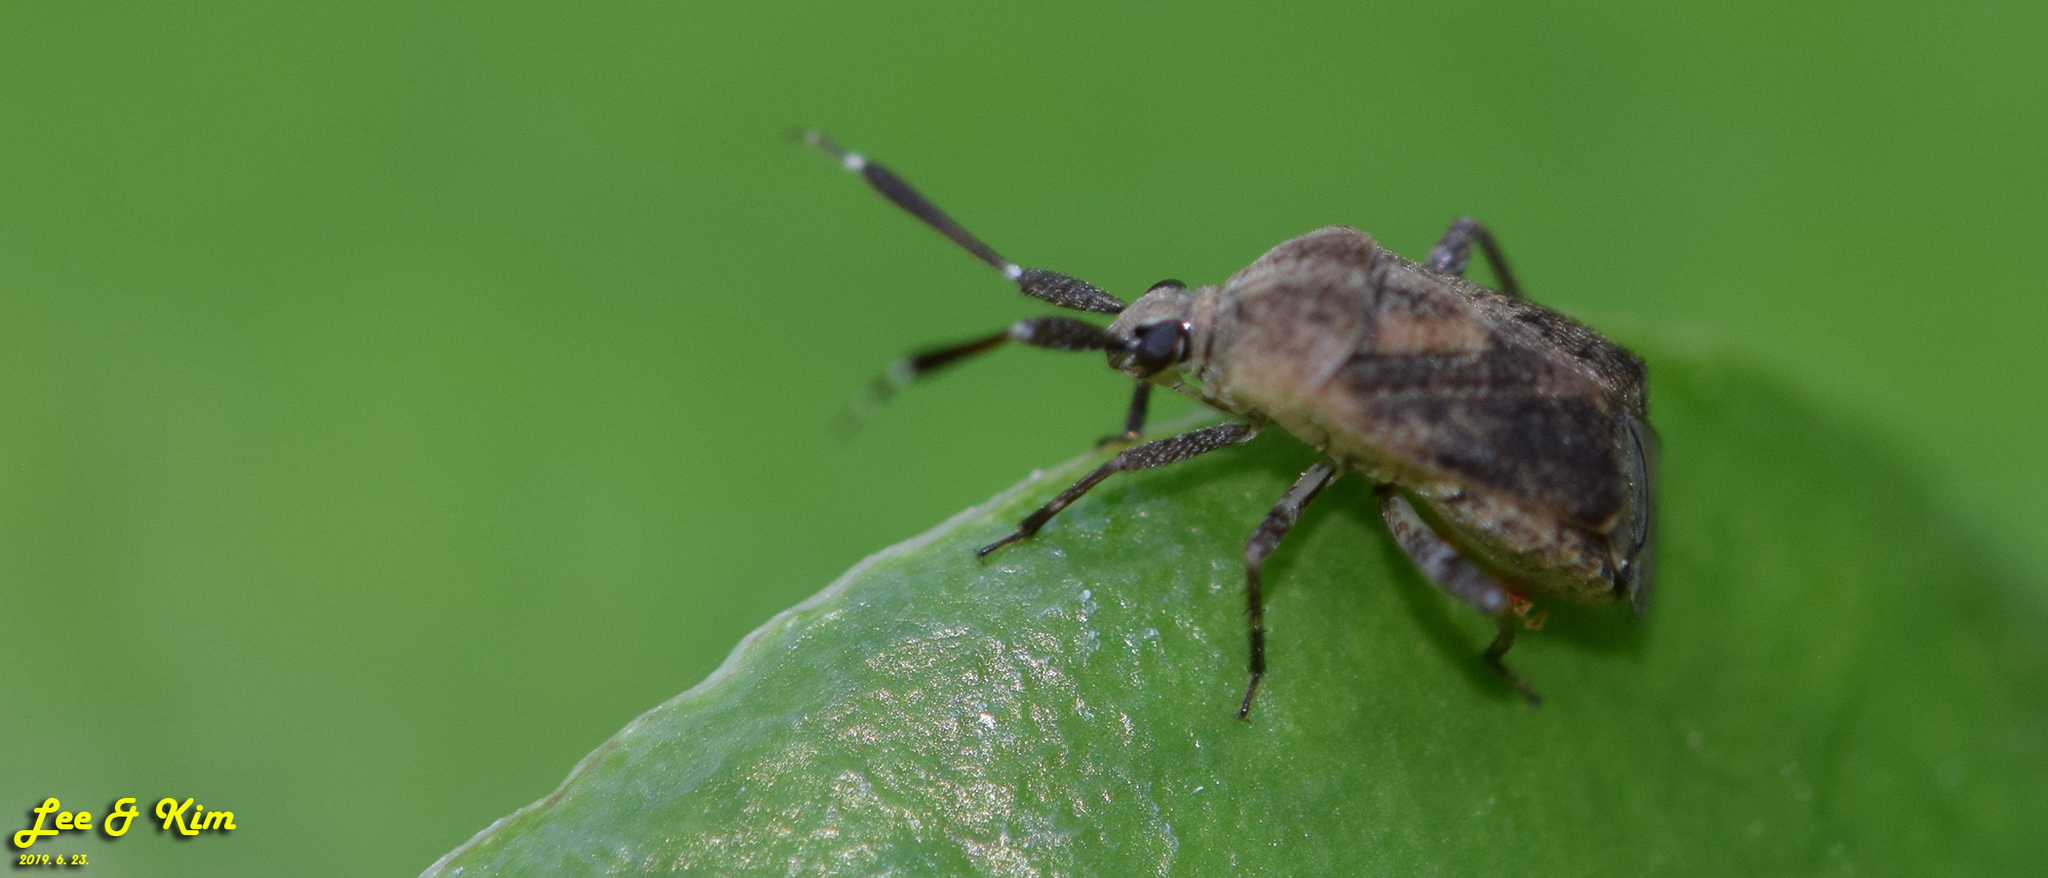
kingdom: Animalia
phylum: Arthropoda
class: Insecta
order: Hemiptera
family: Miridae
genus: Eurystylus
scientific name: Eurystylus sauteri
